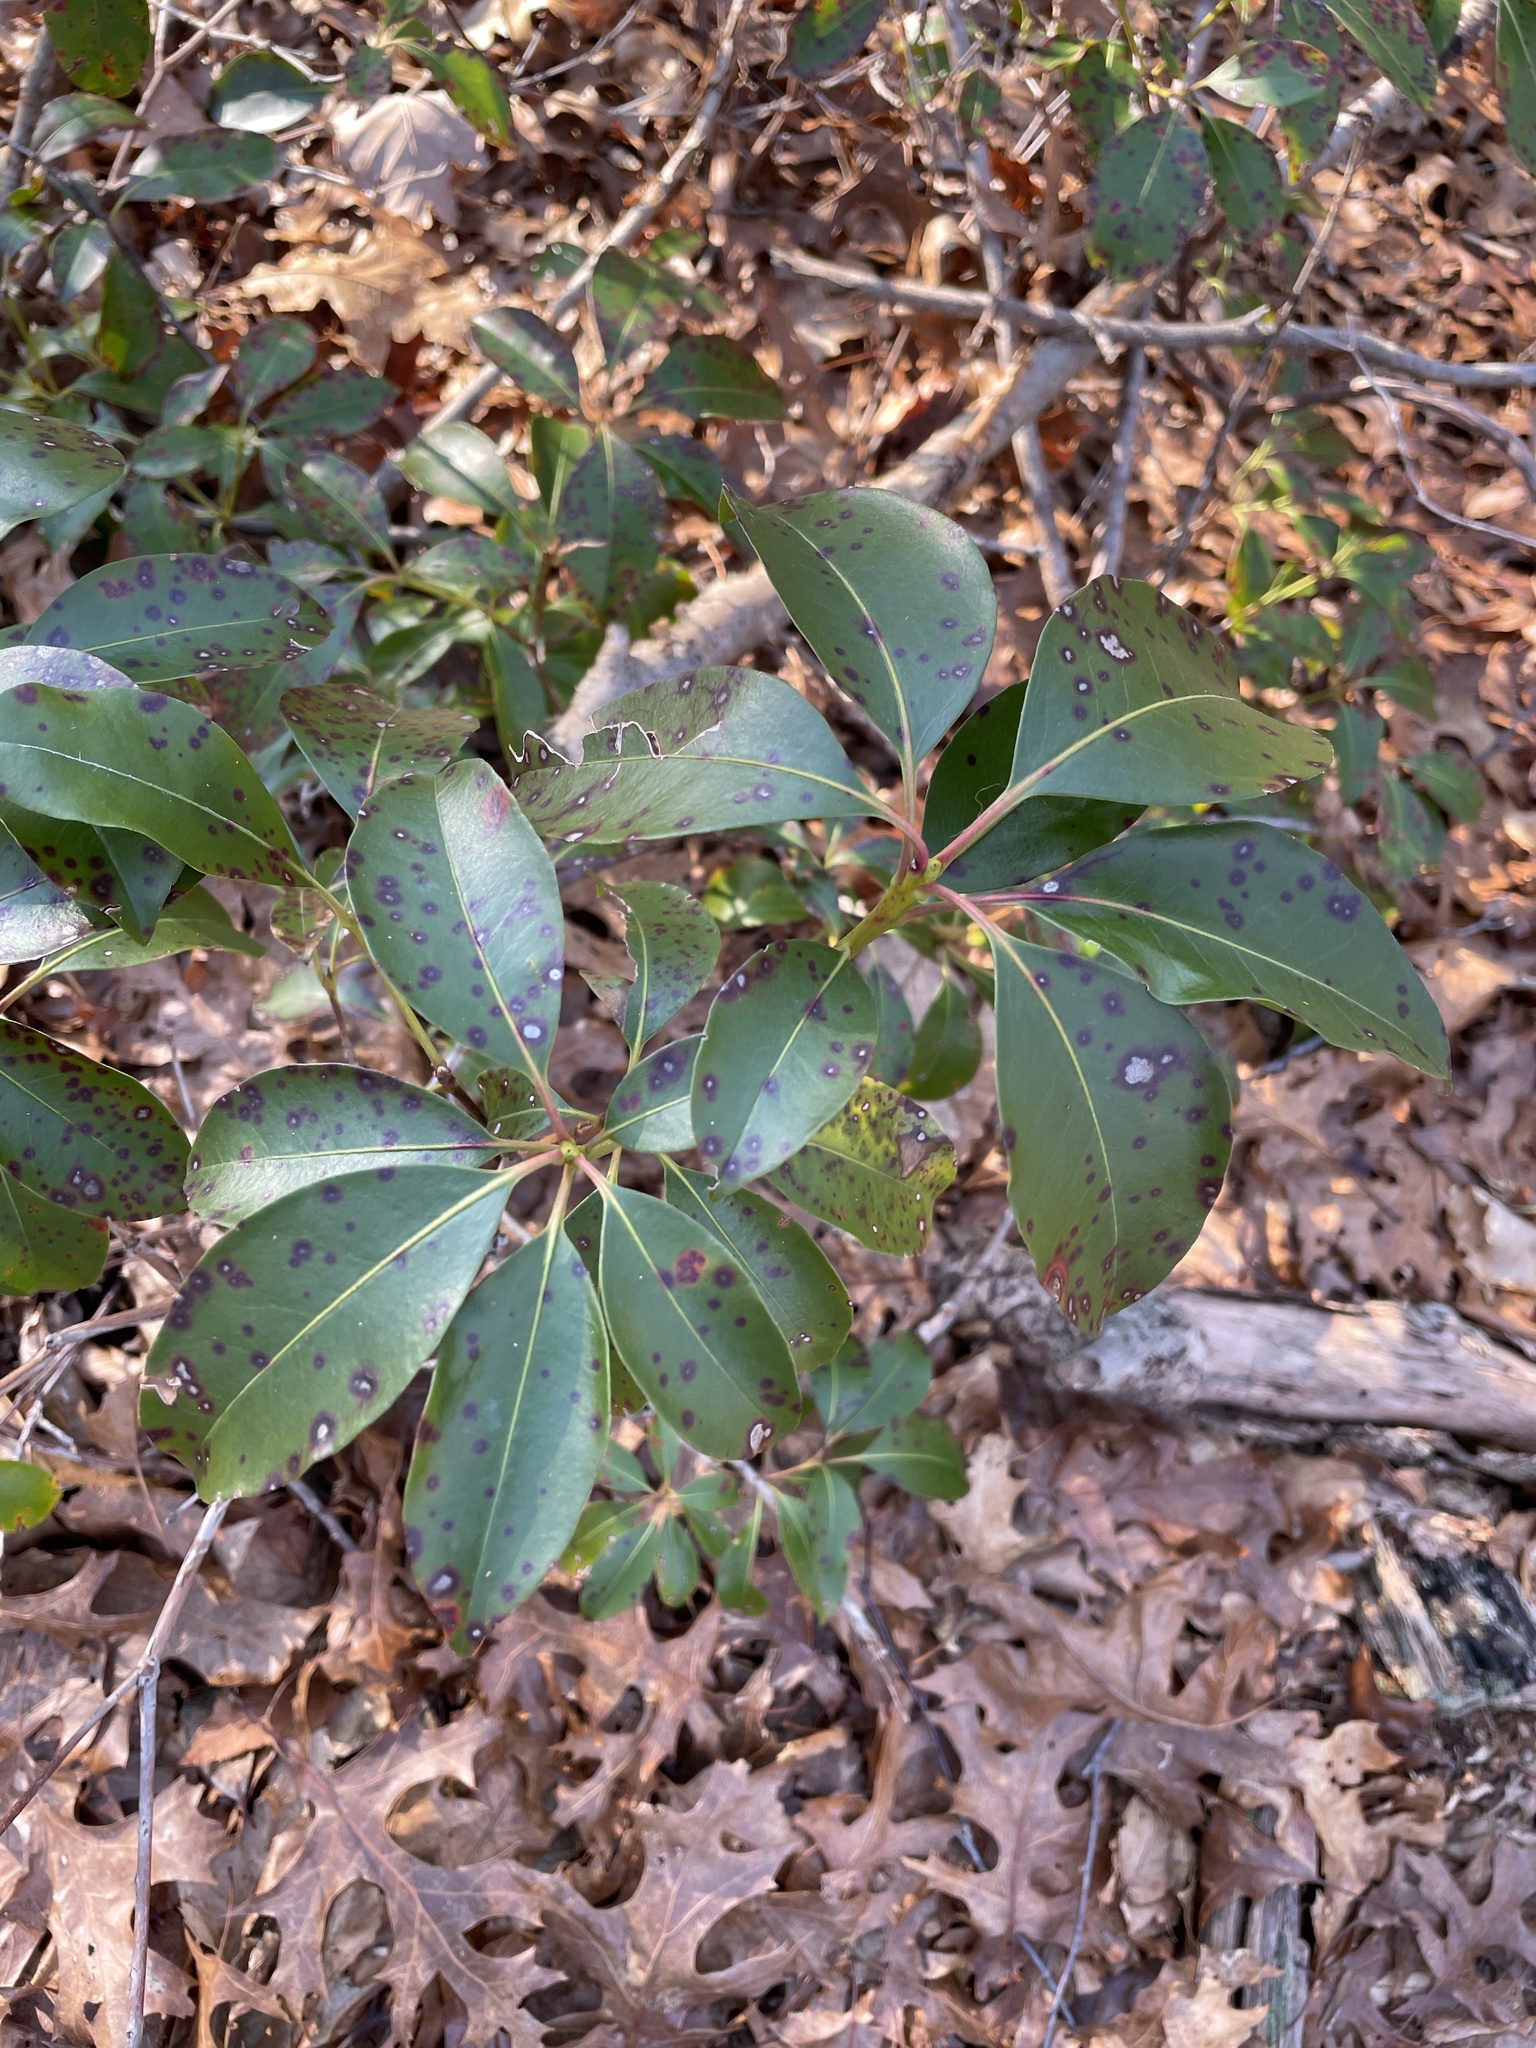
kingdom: Plantae
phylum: Tracheophyta
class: Magnoliopsida
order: Ericales
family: Ericaceae
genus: Kalmia
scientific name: Kalmia latifolia
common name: Mountain-laurel
